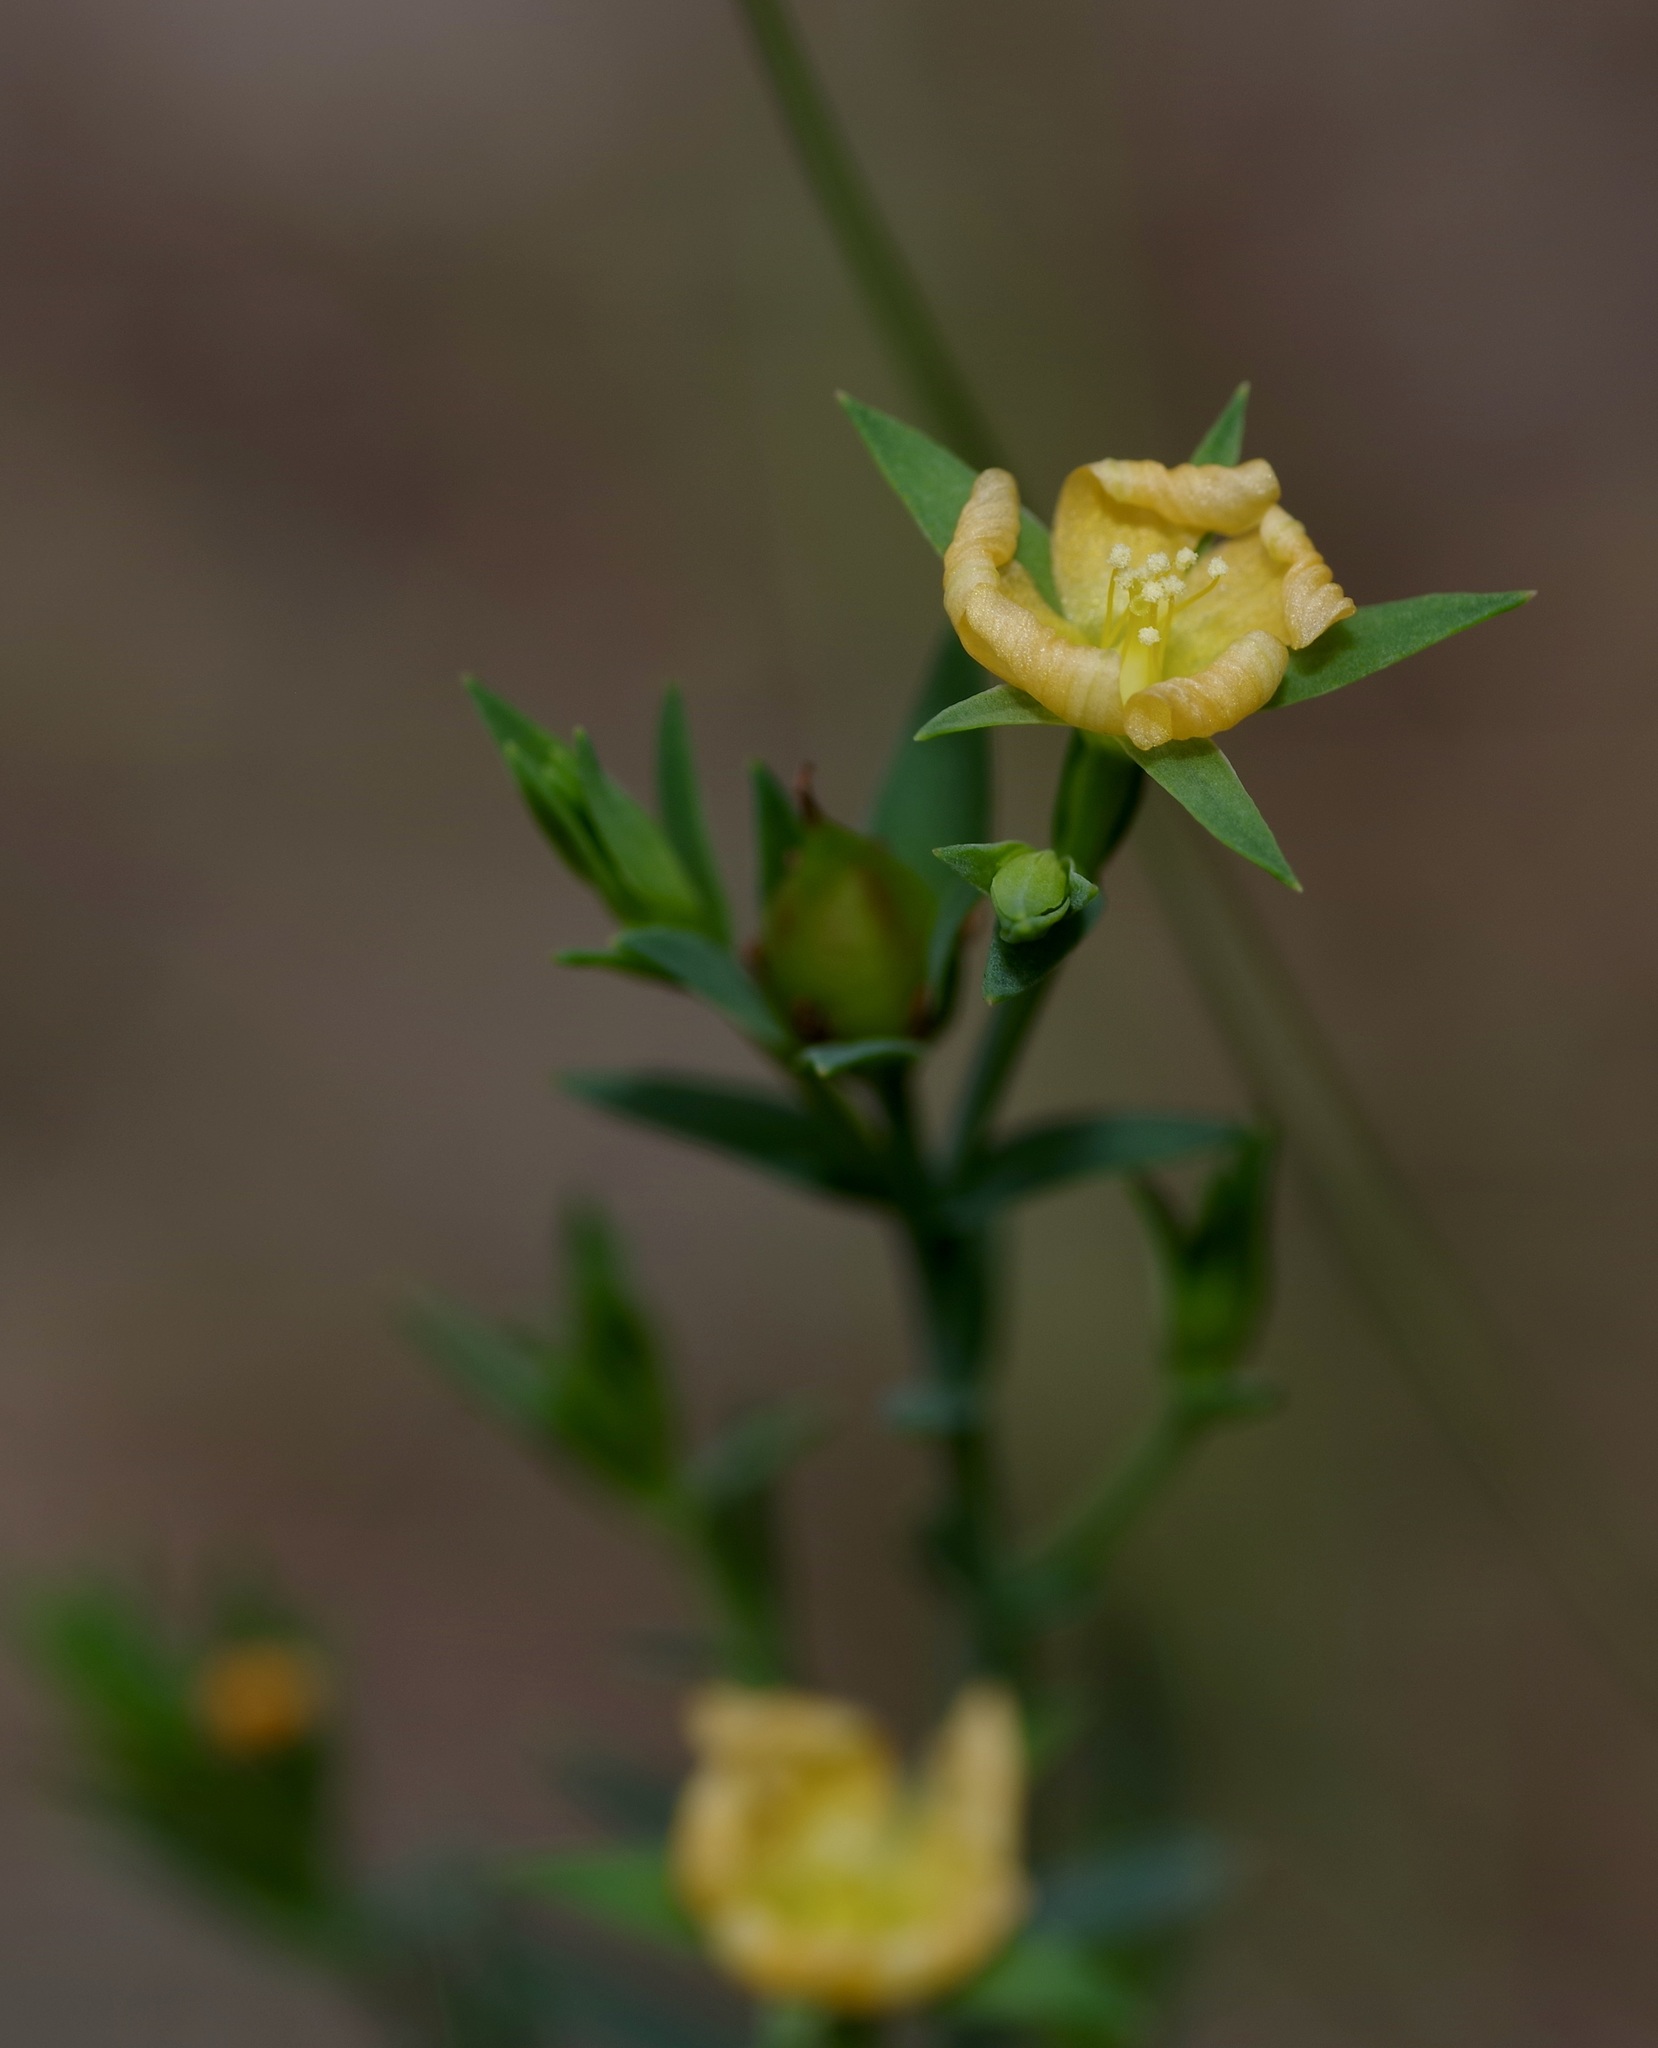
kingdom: Plantae
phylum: Tracheophyta
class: Magnoliopsida
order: Malpighiales
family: Hypericaceae
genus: Hypericum
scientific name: Hypericum drummondii
